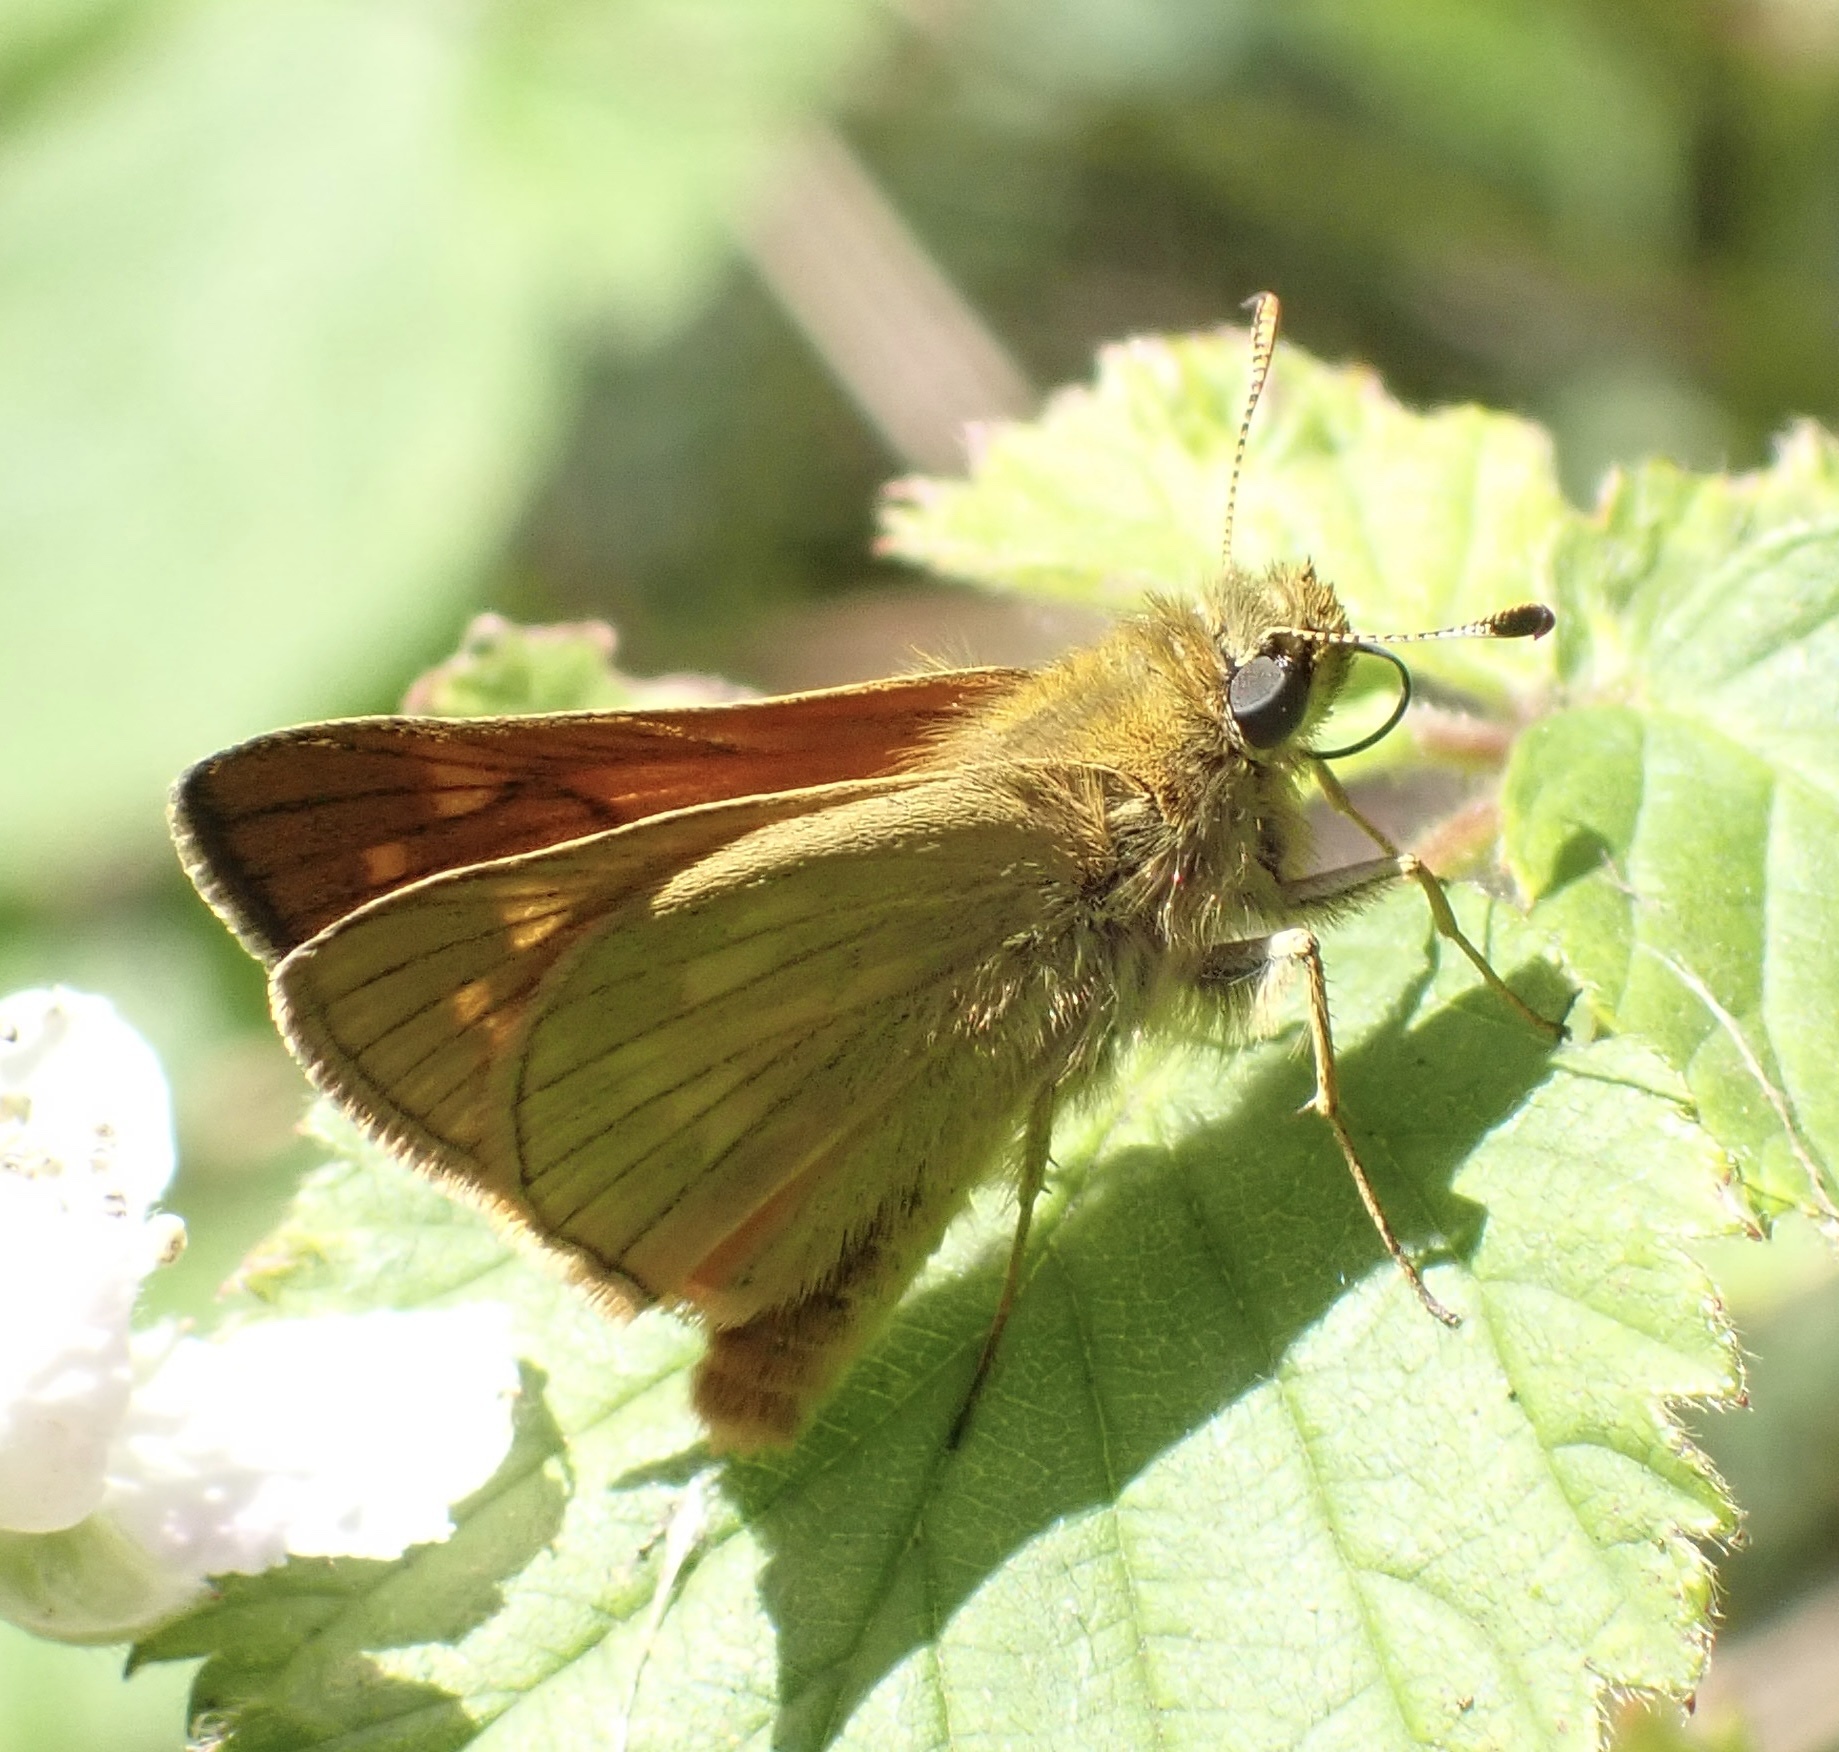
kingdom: Animalia
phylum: Arthropoda
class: Insecta
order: Lepidoptera
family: Hesperiidae
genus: Ochlodes
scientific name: Ochlodes venata
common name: Large skipper
